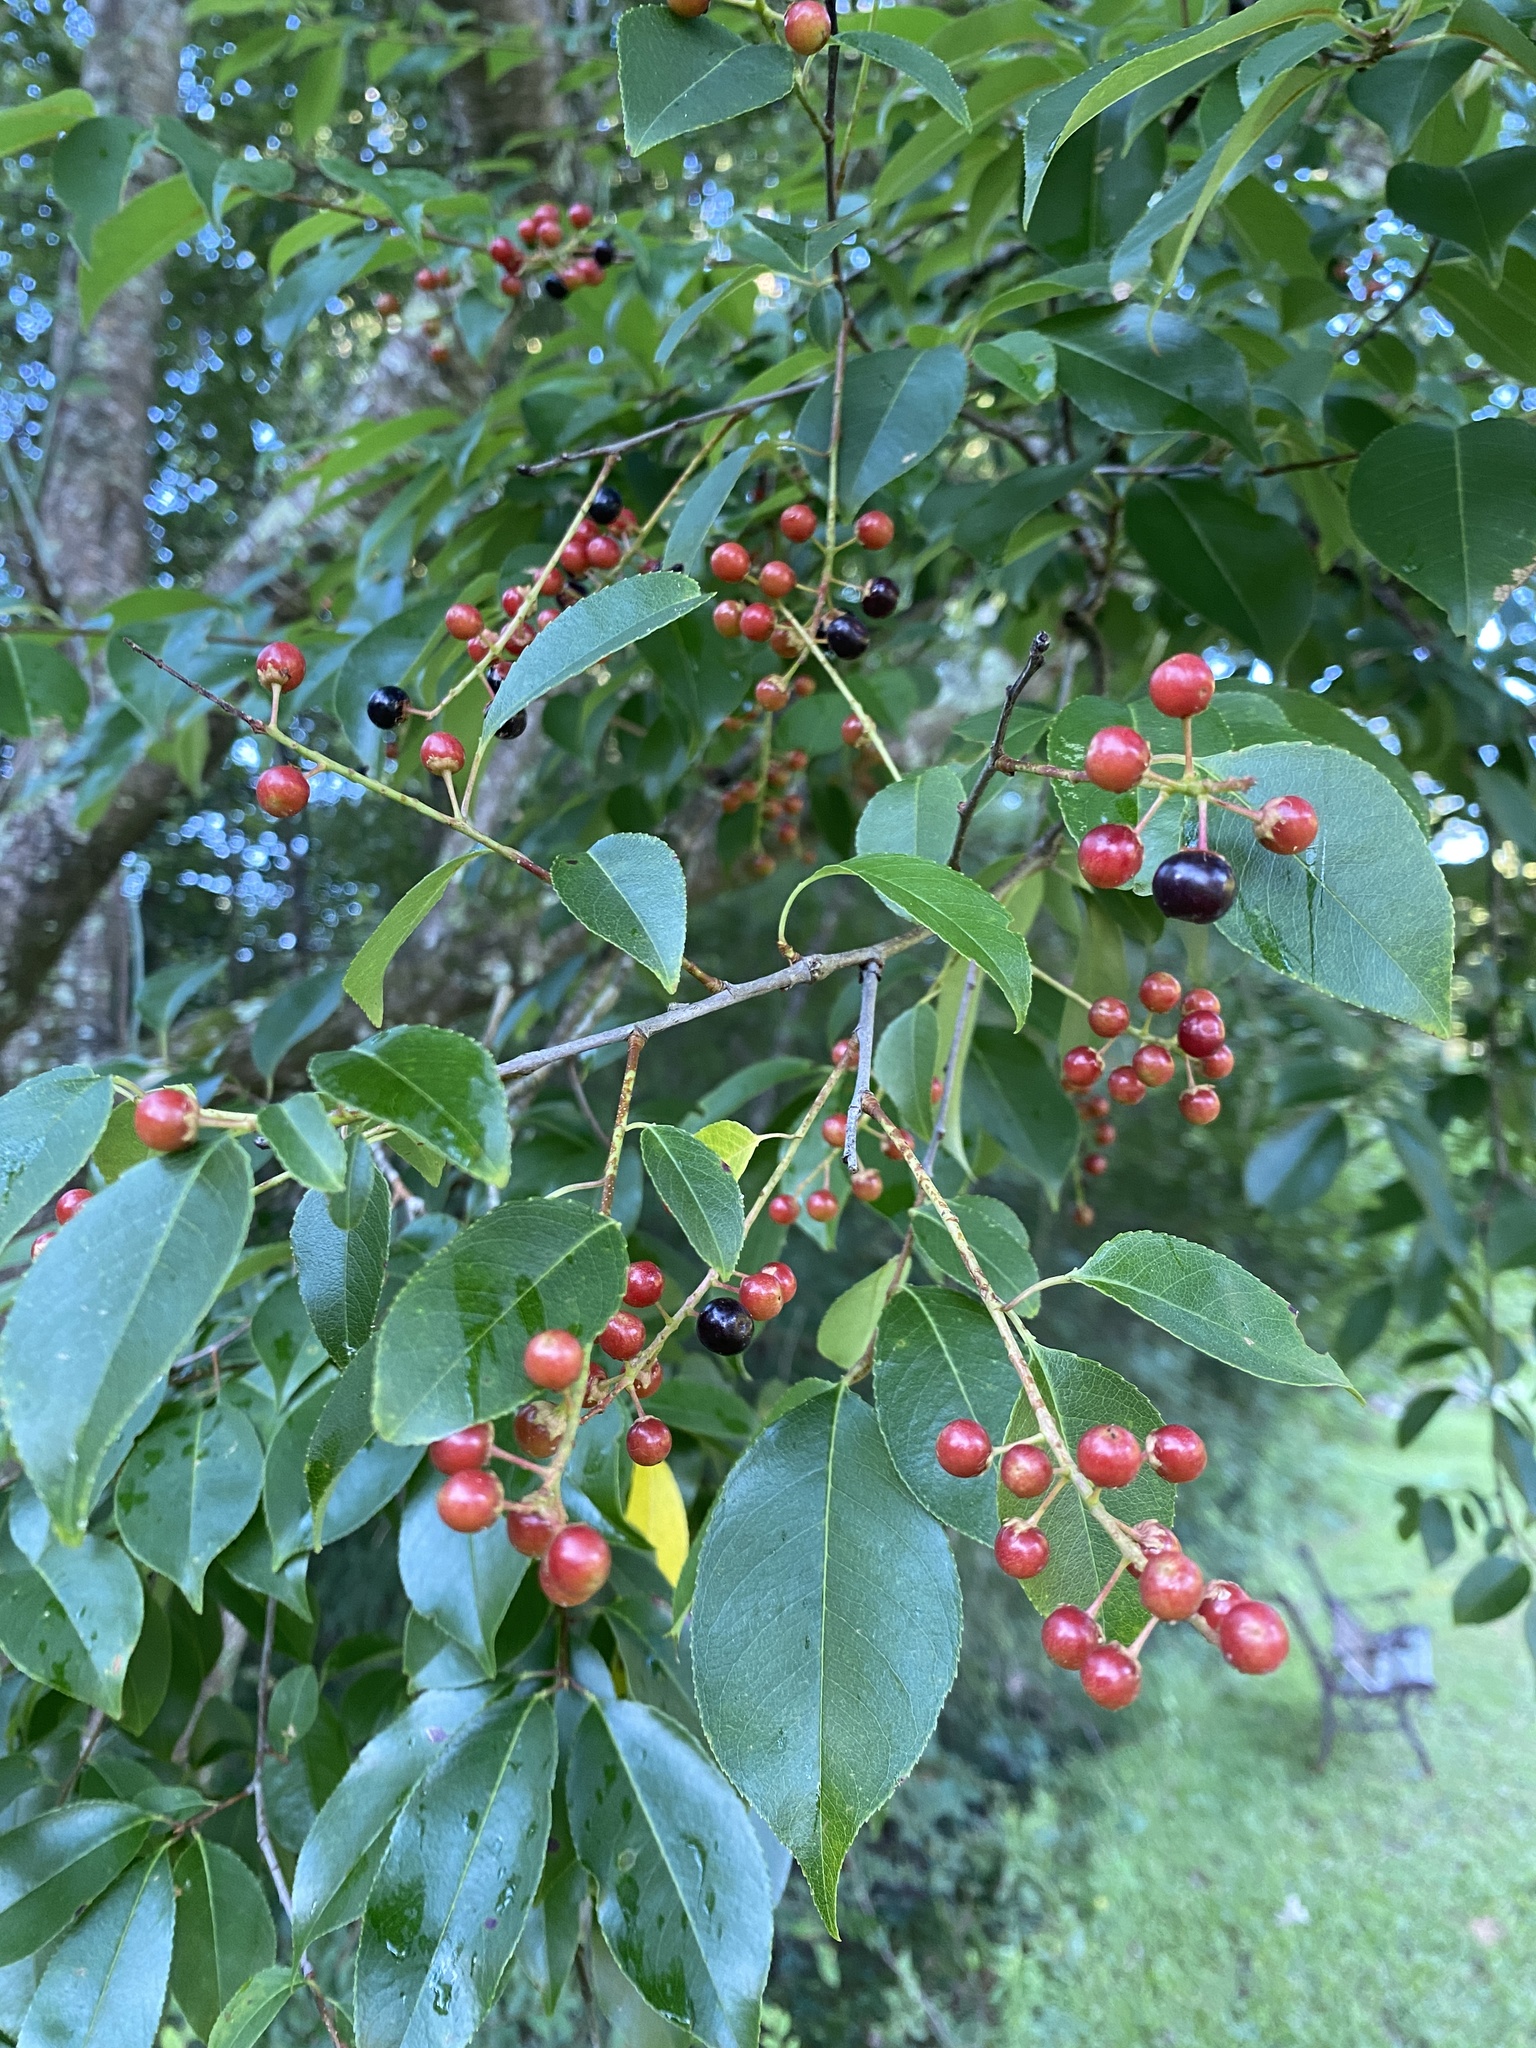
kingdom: Plantae
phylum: Tracheophyta
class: Magnoliopsida
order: Rosales
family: Rosaceae
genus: Prunus
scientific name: Prunus serotina
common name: Black cherry
